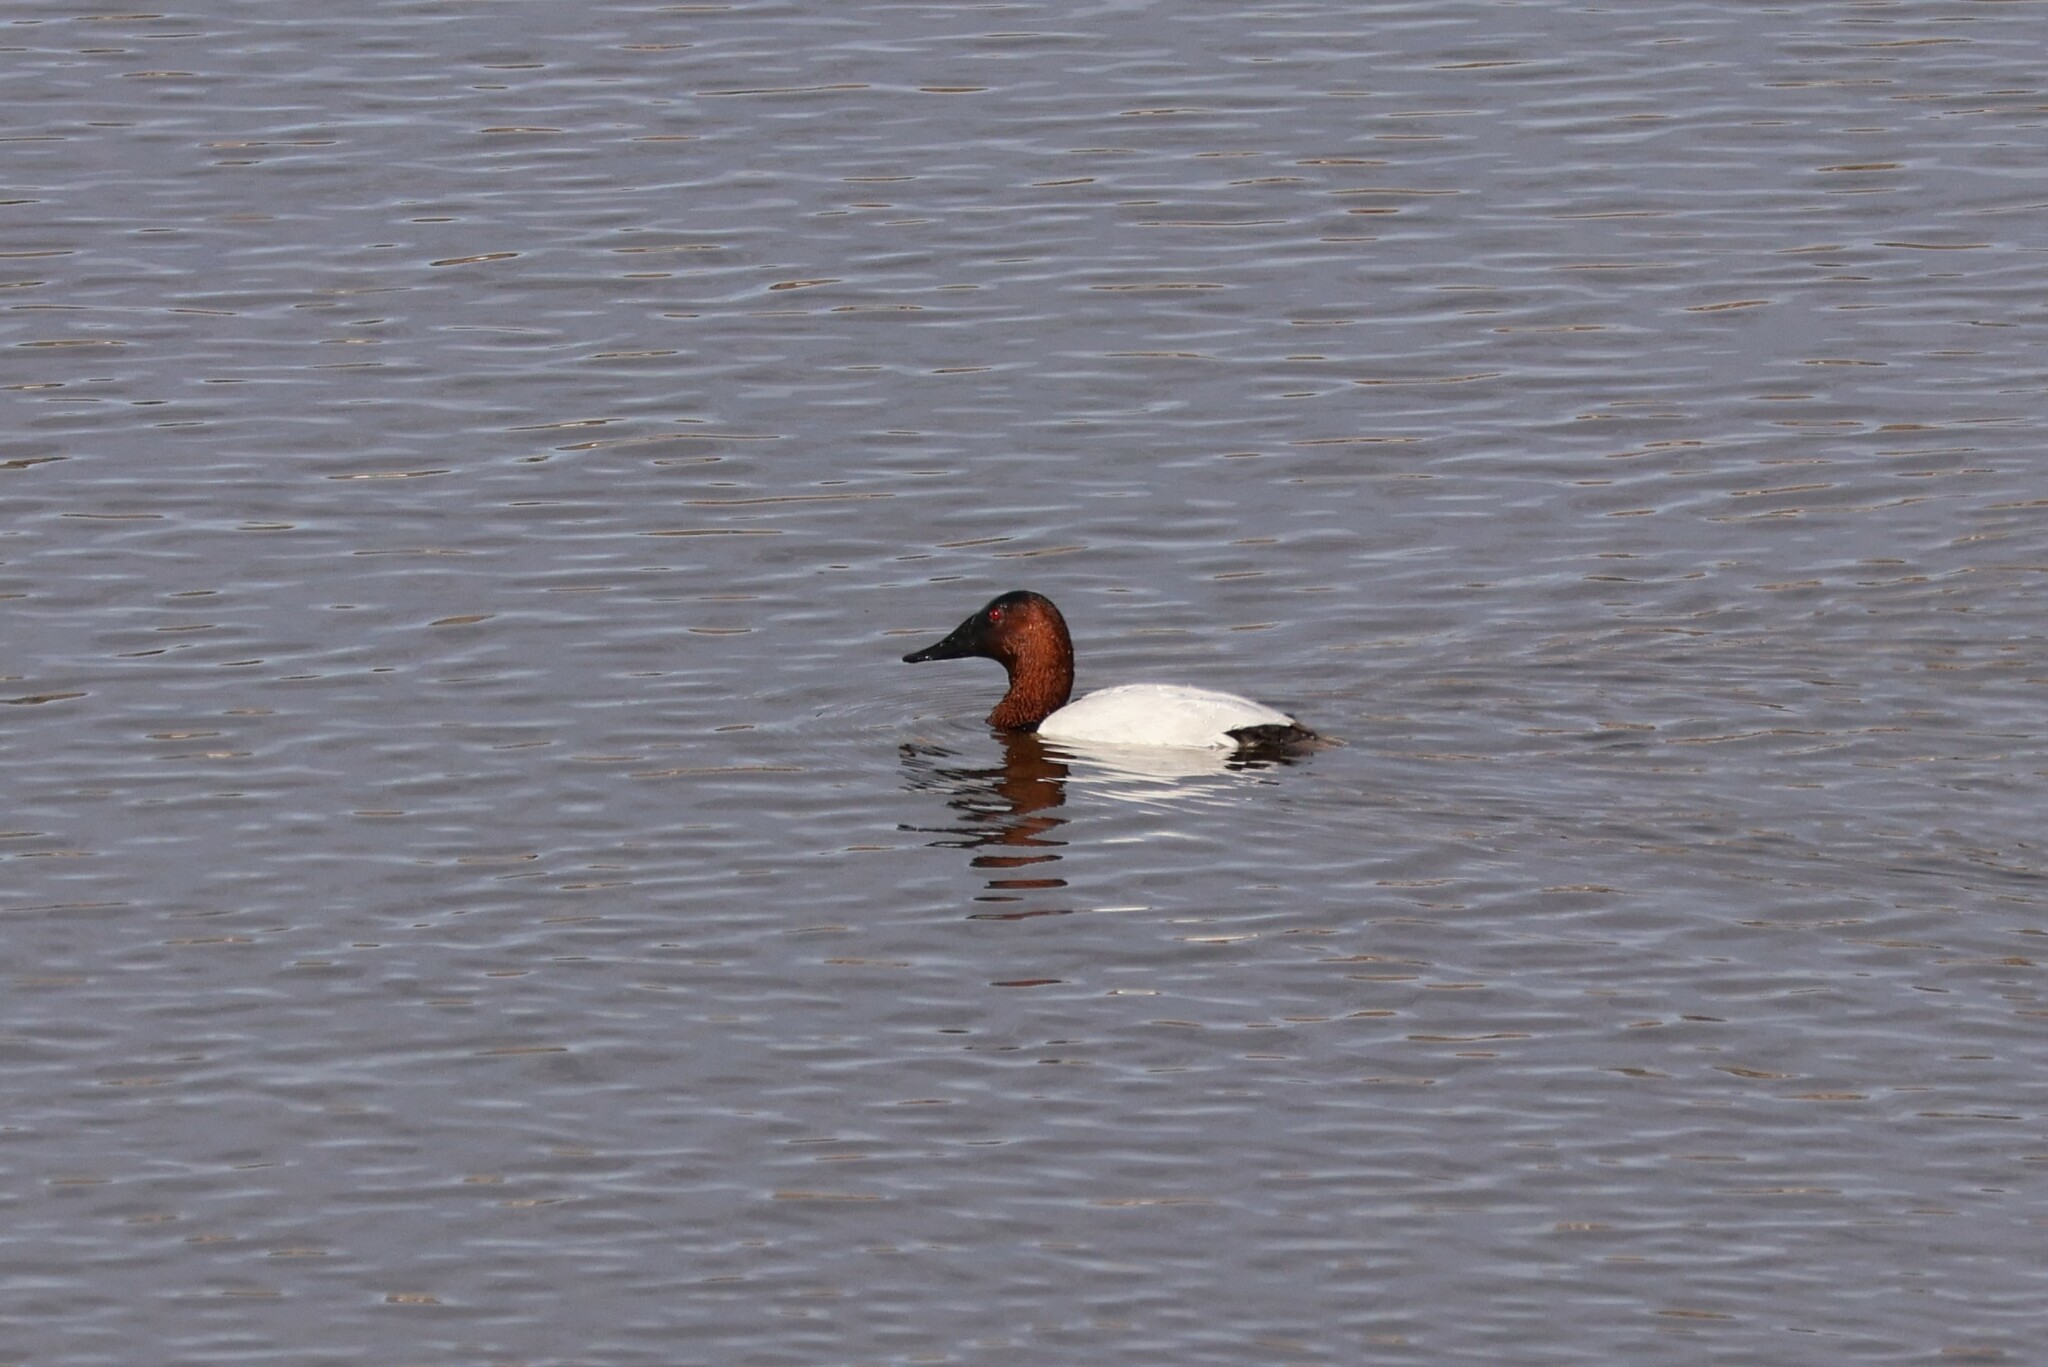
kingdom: Animalia
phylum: Chordata
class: Aves
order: Anseriformes
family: Anatidae
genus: Aythya
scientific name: Aythya valisineria
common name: Canvasback
